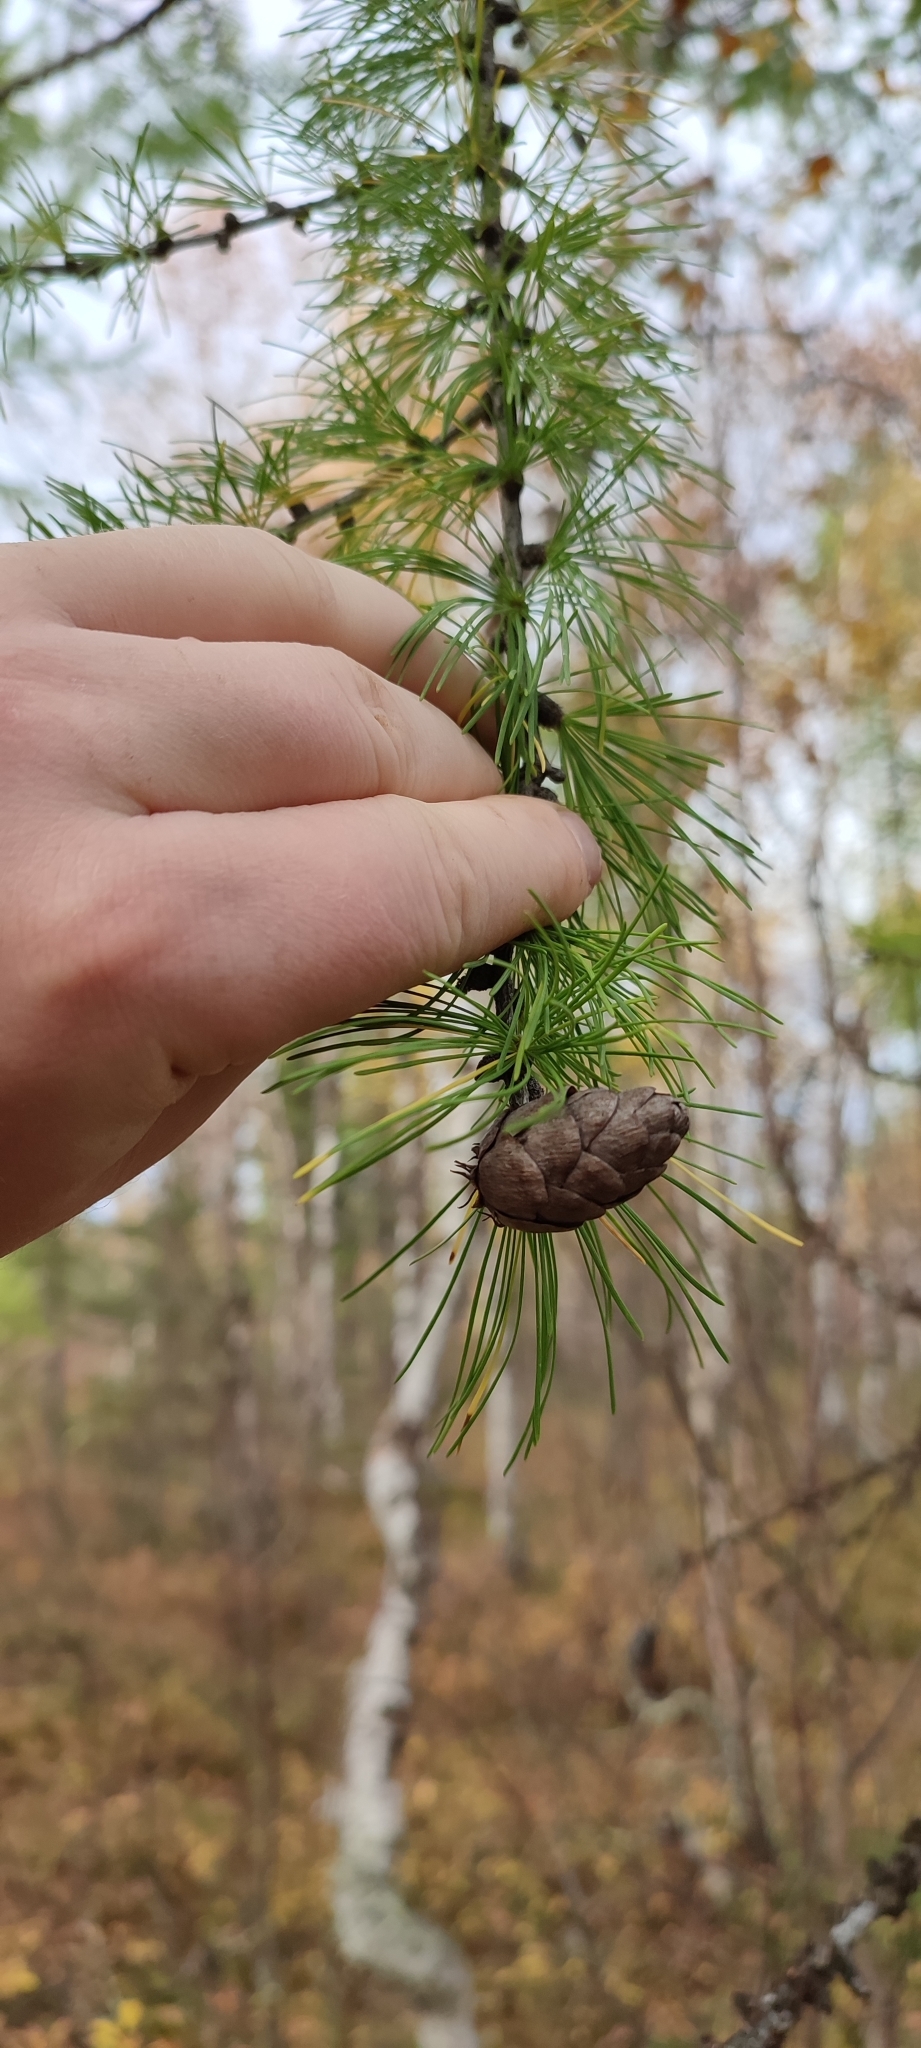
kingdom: Plantae
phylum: Tracheophyta
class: Pinopsida
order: Pinales
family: Pinaceae
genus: Larix
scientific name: Larix sibirica
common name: Siberian larch
